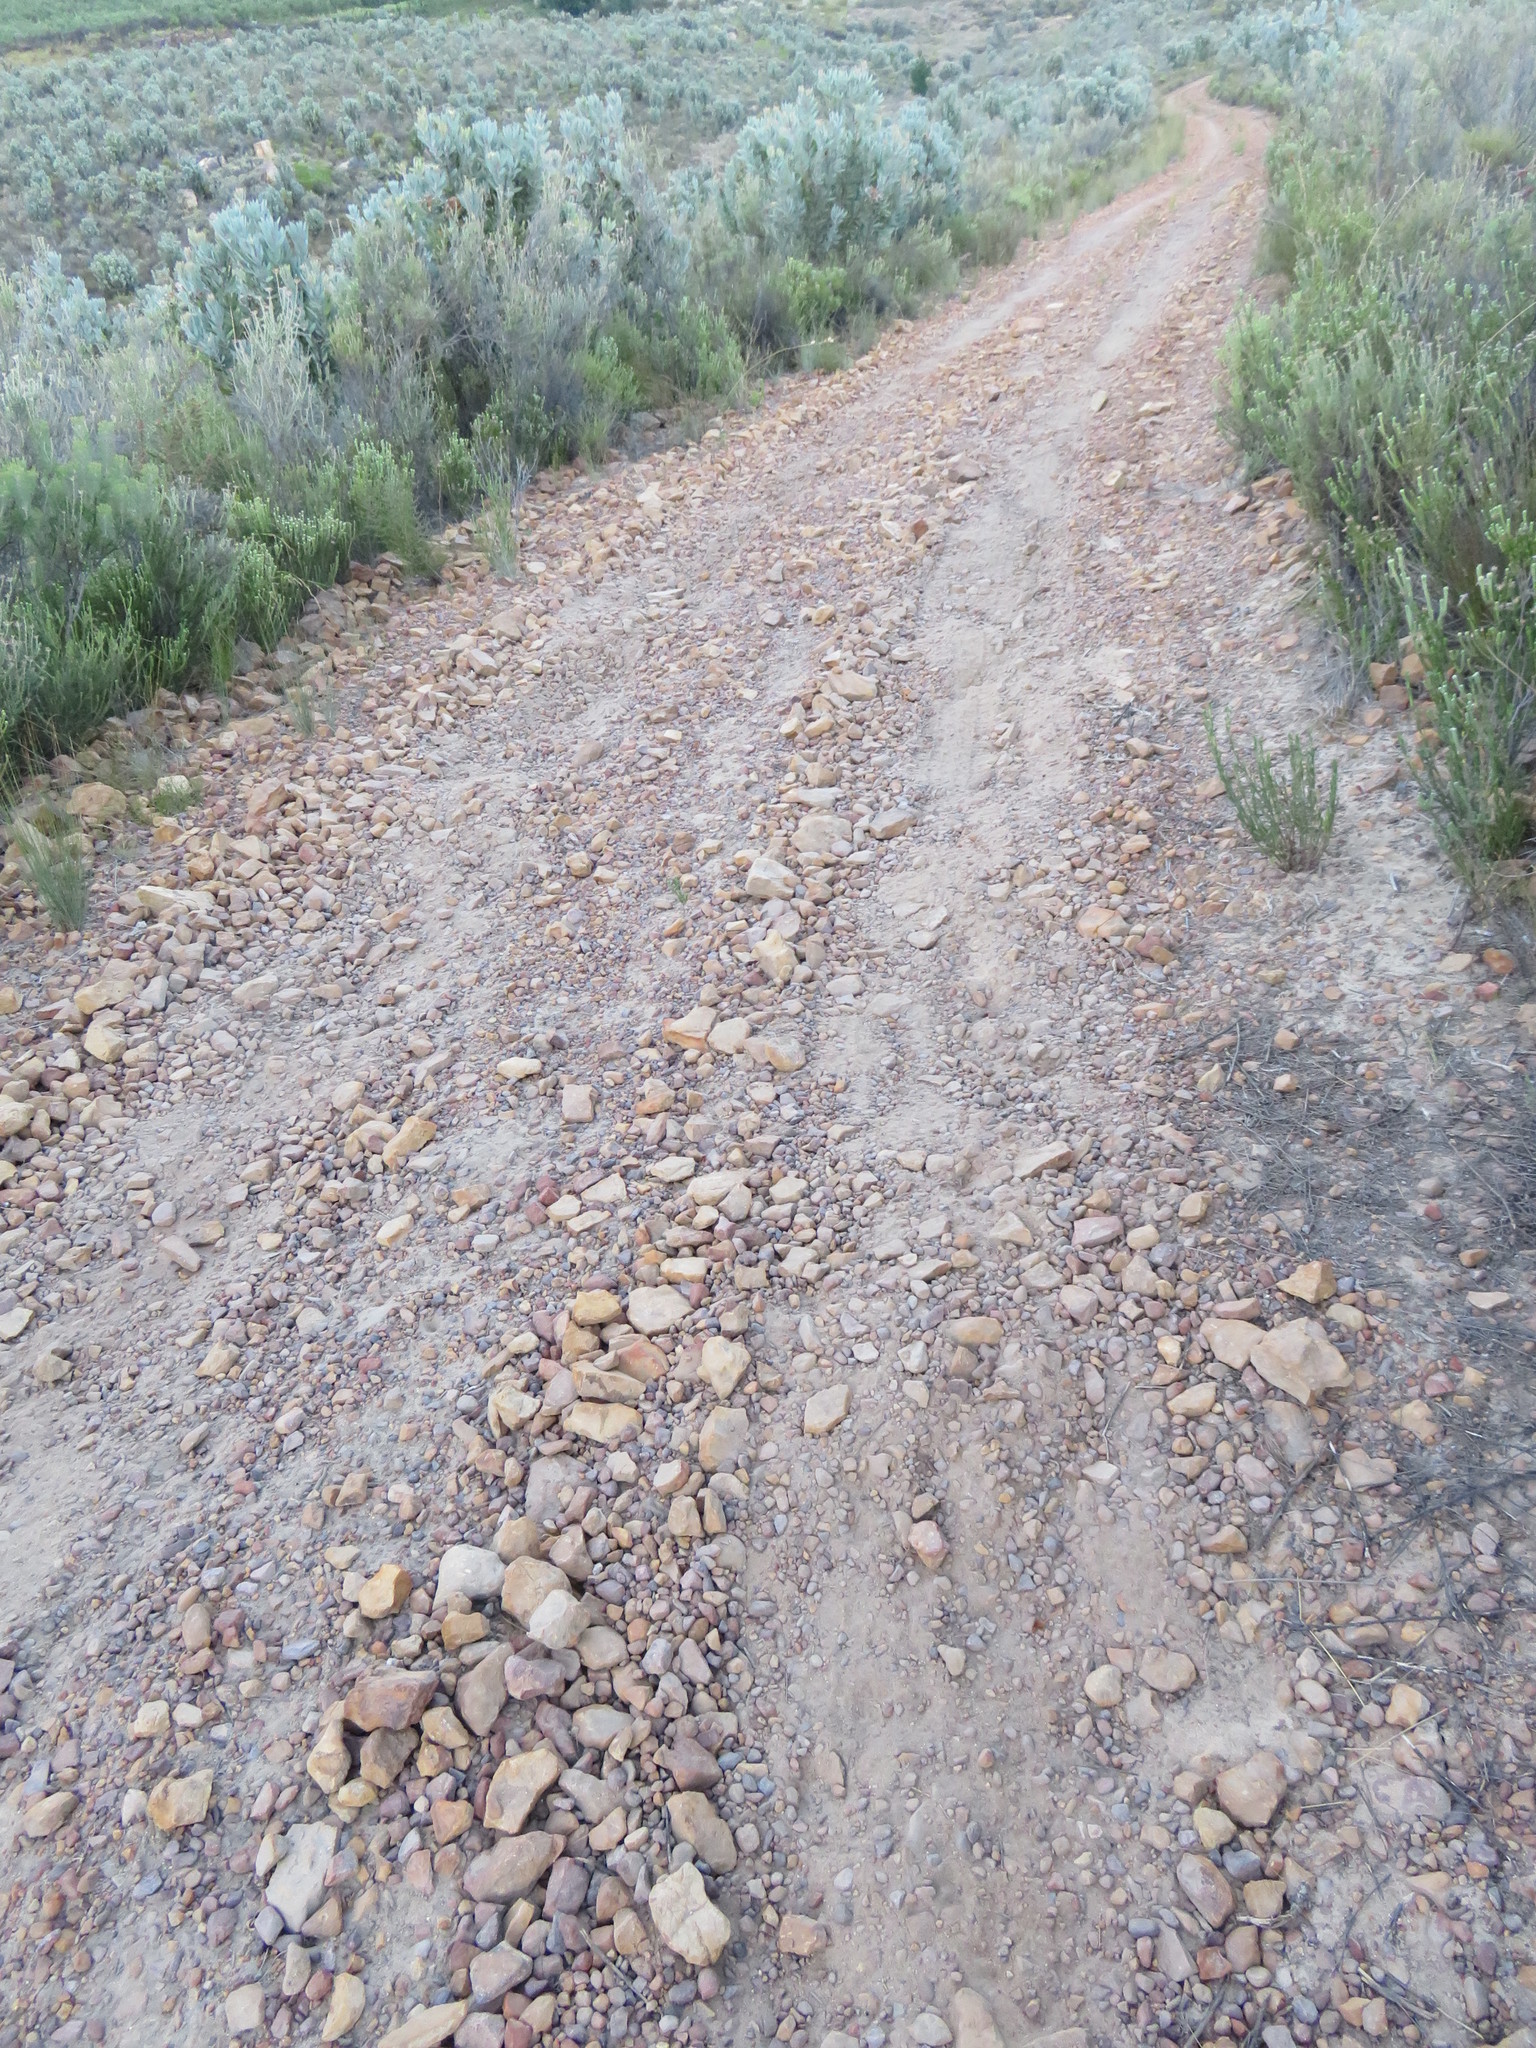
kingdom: Plantae
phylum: Tracheophyta
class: Magnoliopsida
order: Proteales
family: Proteaceae
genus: Protea
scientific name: Protea laurifolia
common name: Grey-leaf sugarbsh
